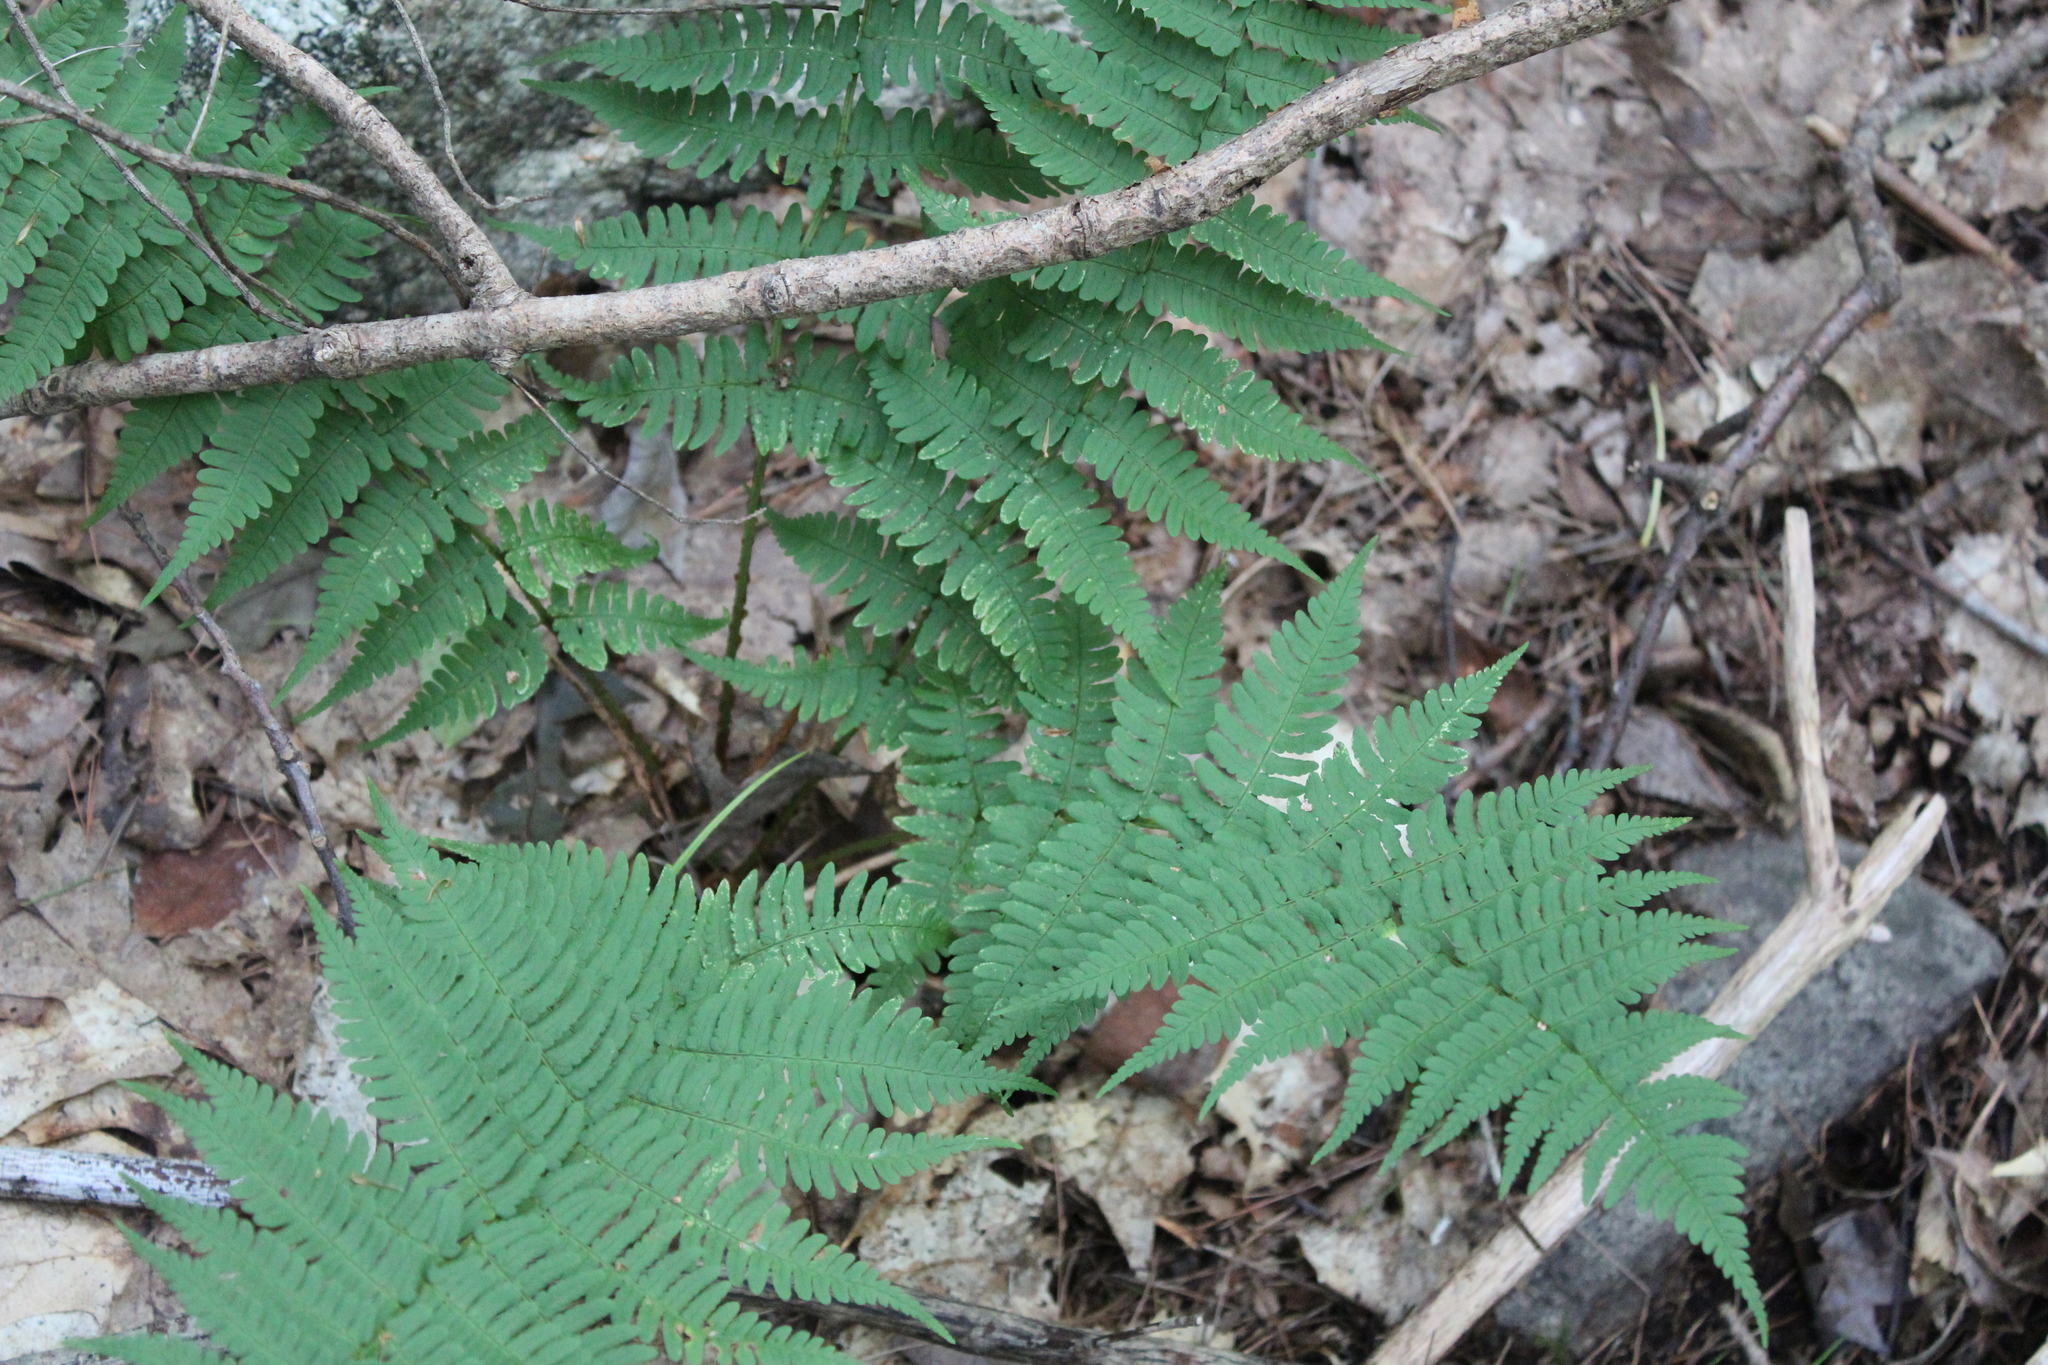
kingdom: Plantae
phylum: Tracheophyta
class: Polypodiopsida
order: Polypodiales
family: Dryopteridaceae
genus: Dryopteris
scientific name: Dryopteris marginalis
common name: Marginal wood fern
